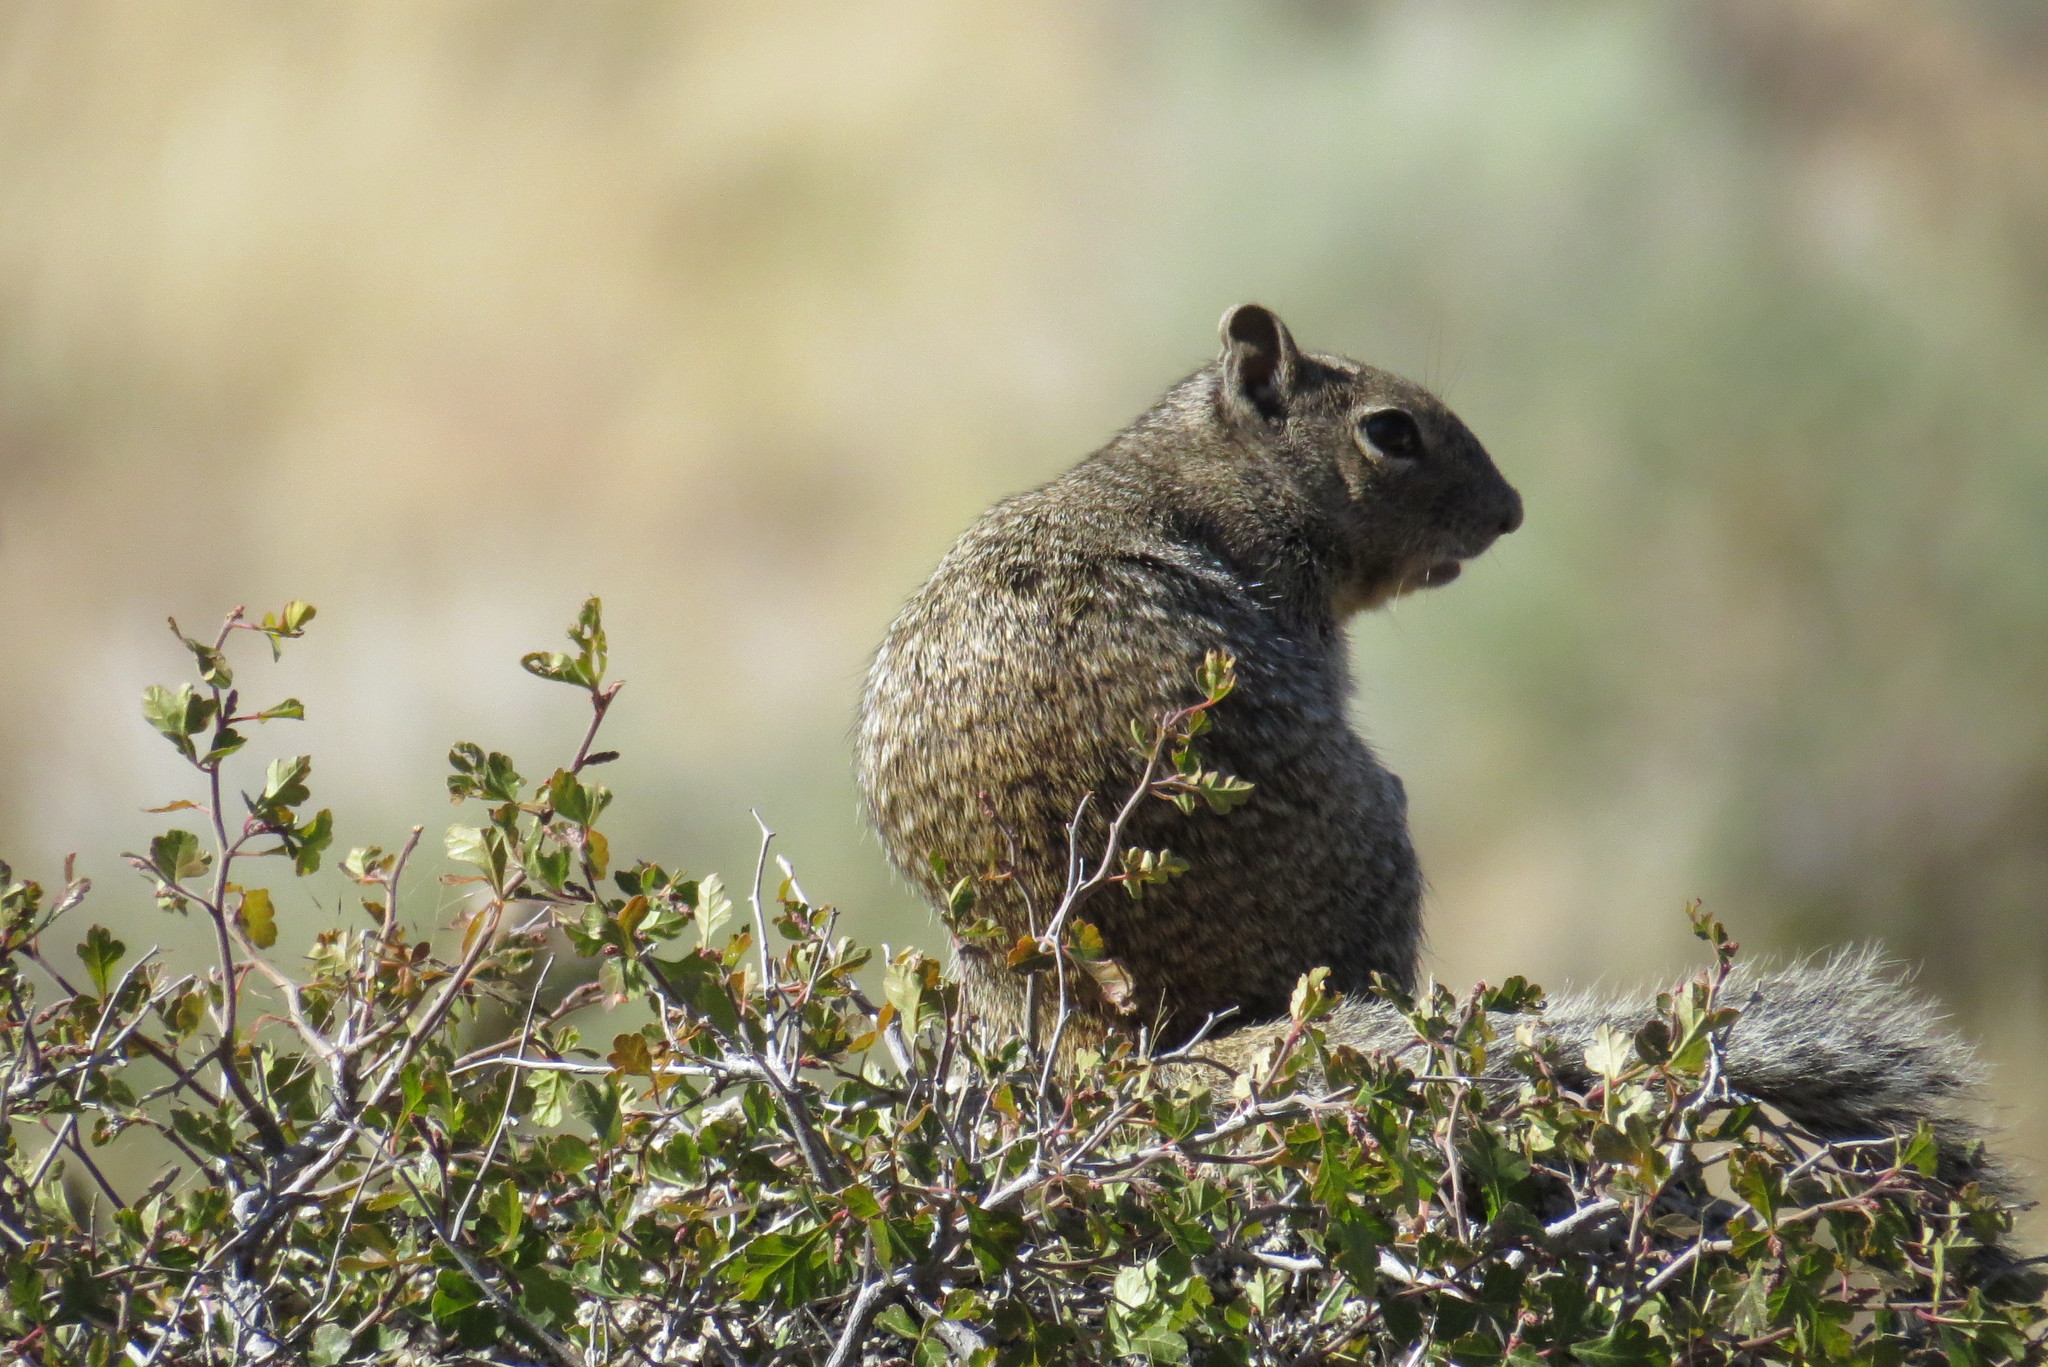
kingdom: Animalia
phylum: Chordata
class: Mammalia
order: Rodentia
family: Sciuridae
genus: Otospermophilus
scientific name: Otospermophilus variegatus
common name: Rock squirrel
